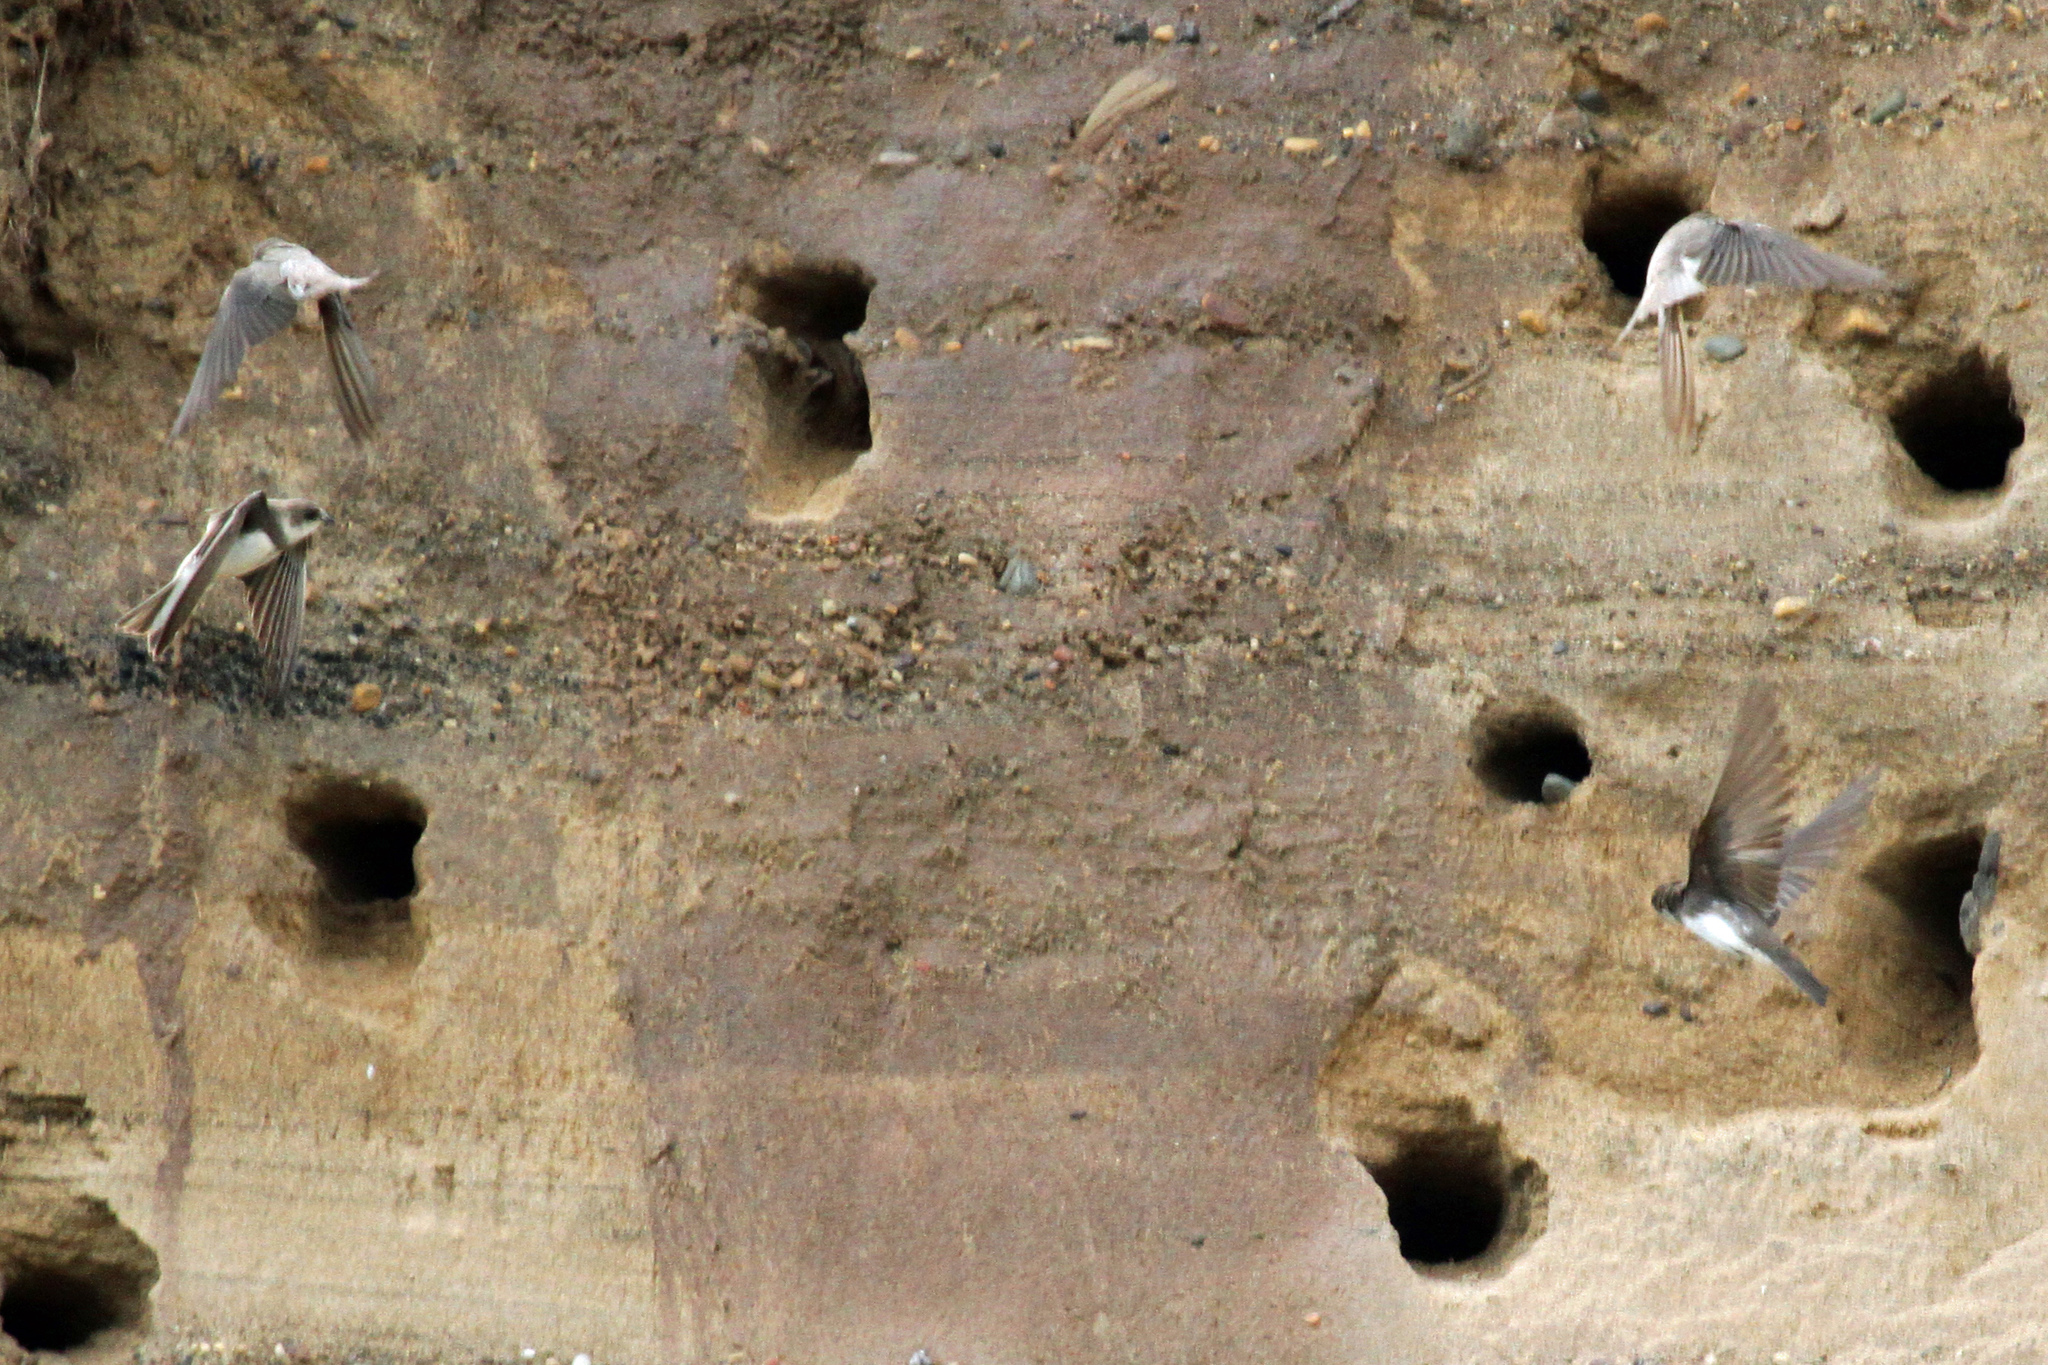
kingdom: Animalia
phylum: Chordata
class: Aves
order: Passeriformes
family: Hirundinidae
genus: Riparia
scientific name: Riparia riparia
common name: Sand martin
